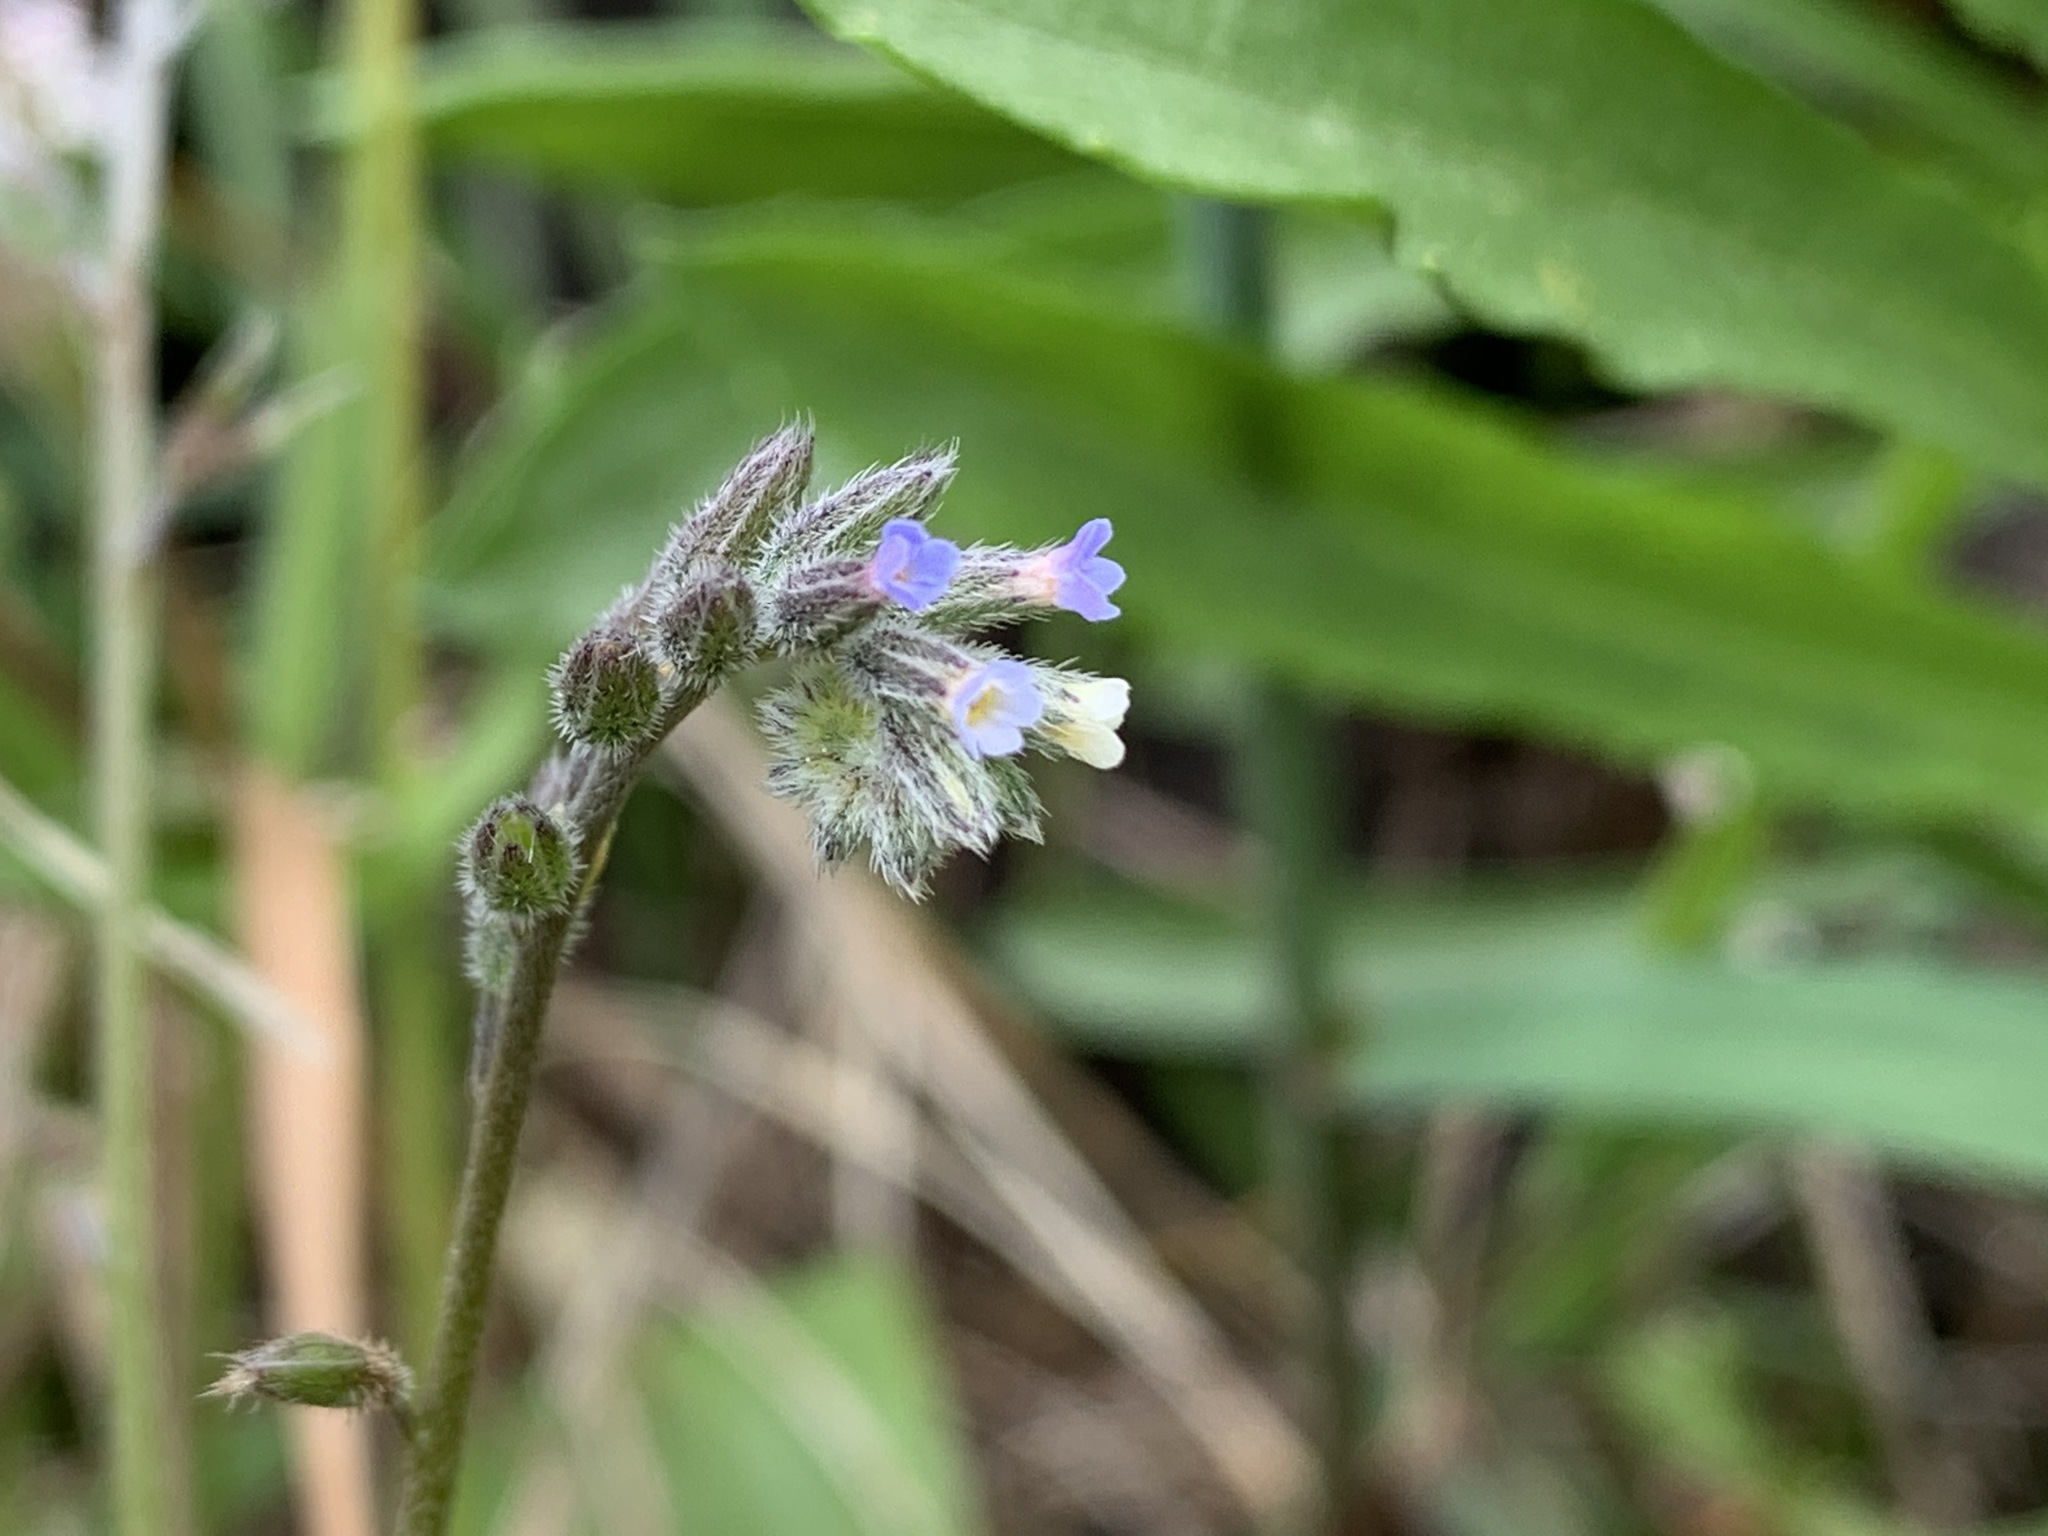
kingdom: Plantae
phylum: Tracheophyta
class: Magnoliopsida
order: Boraginales
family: Boraginaceae
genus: Myosotis
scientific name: Myosotis discolor
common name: Changing forget-me-not
